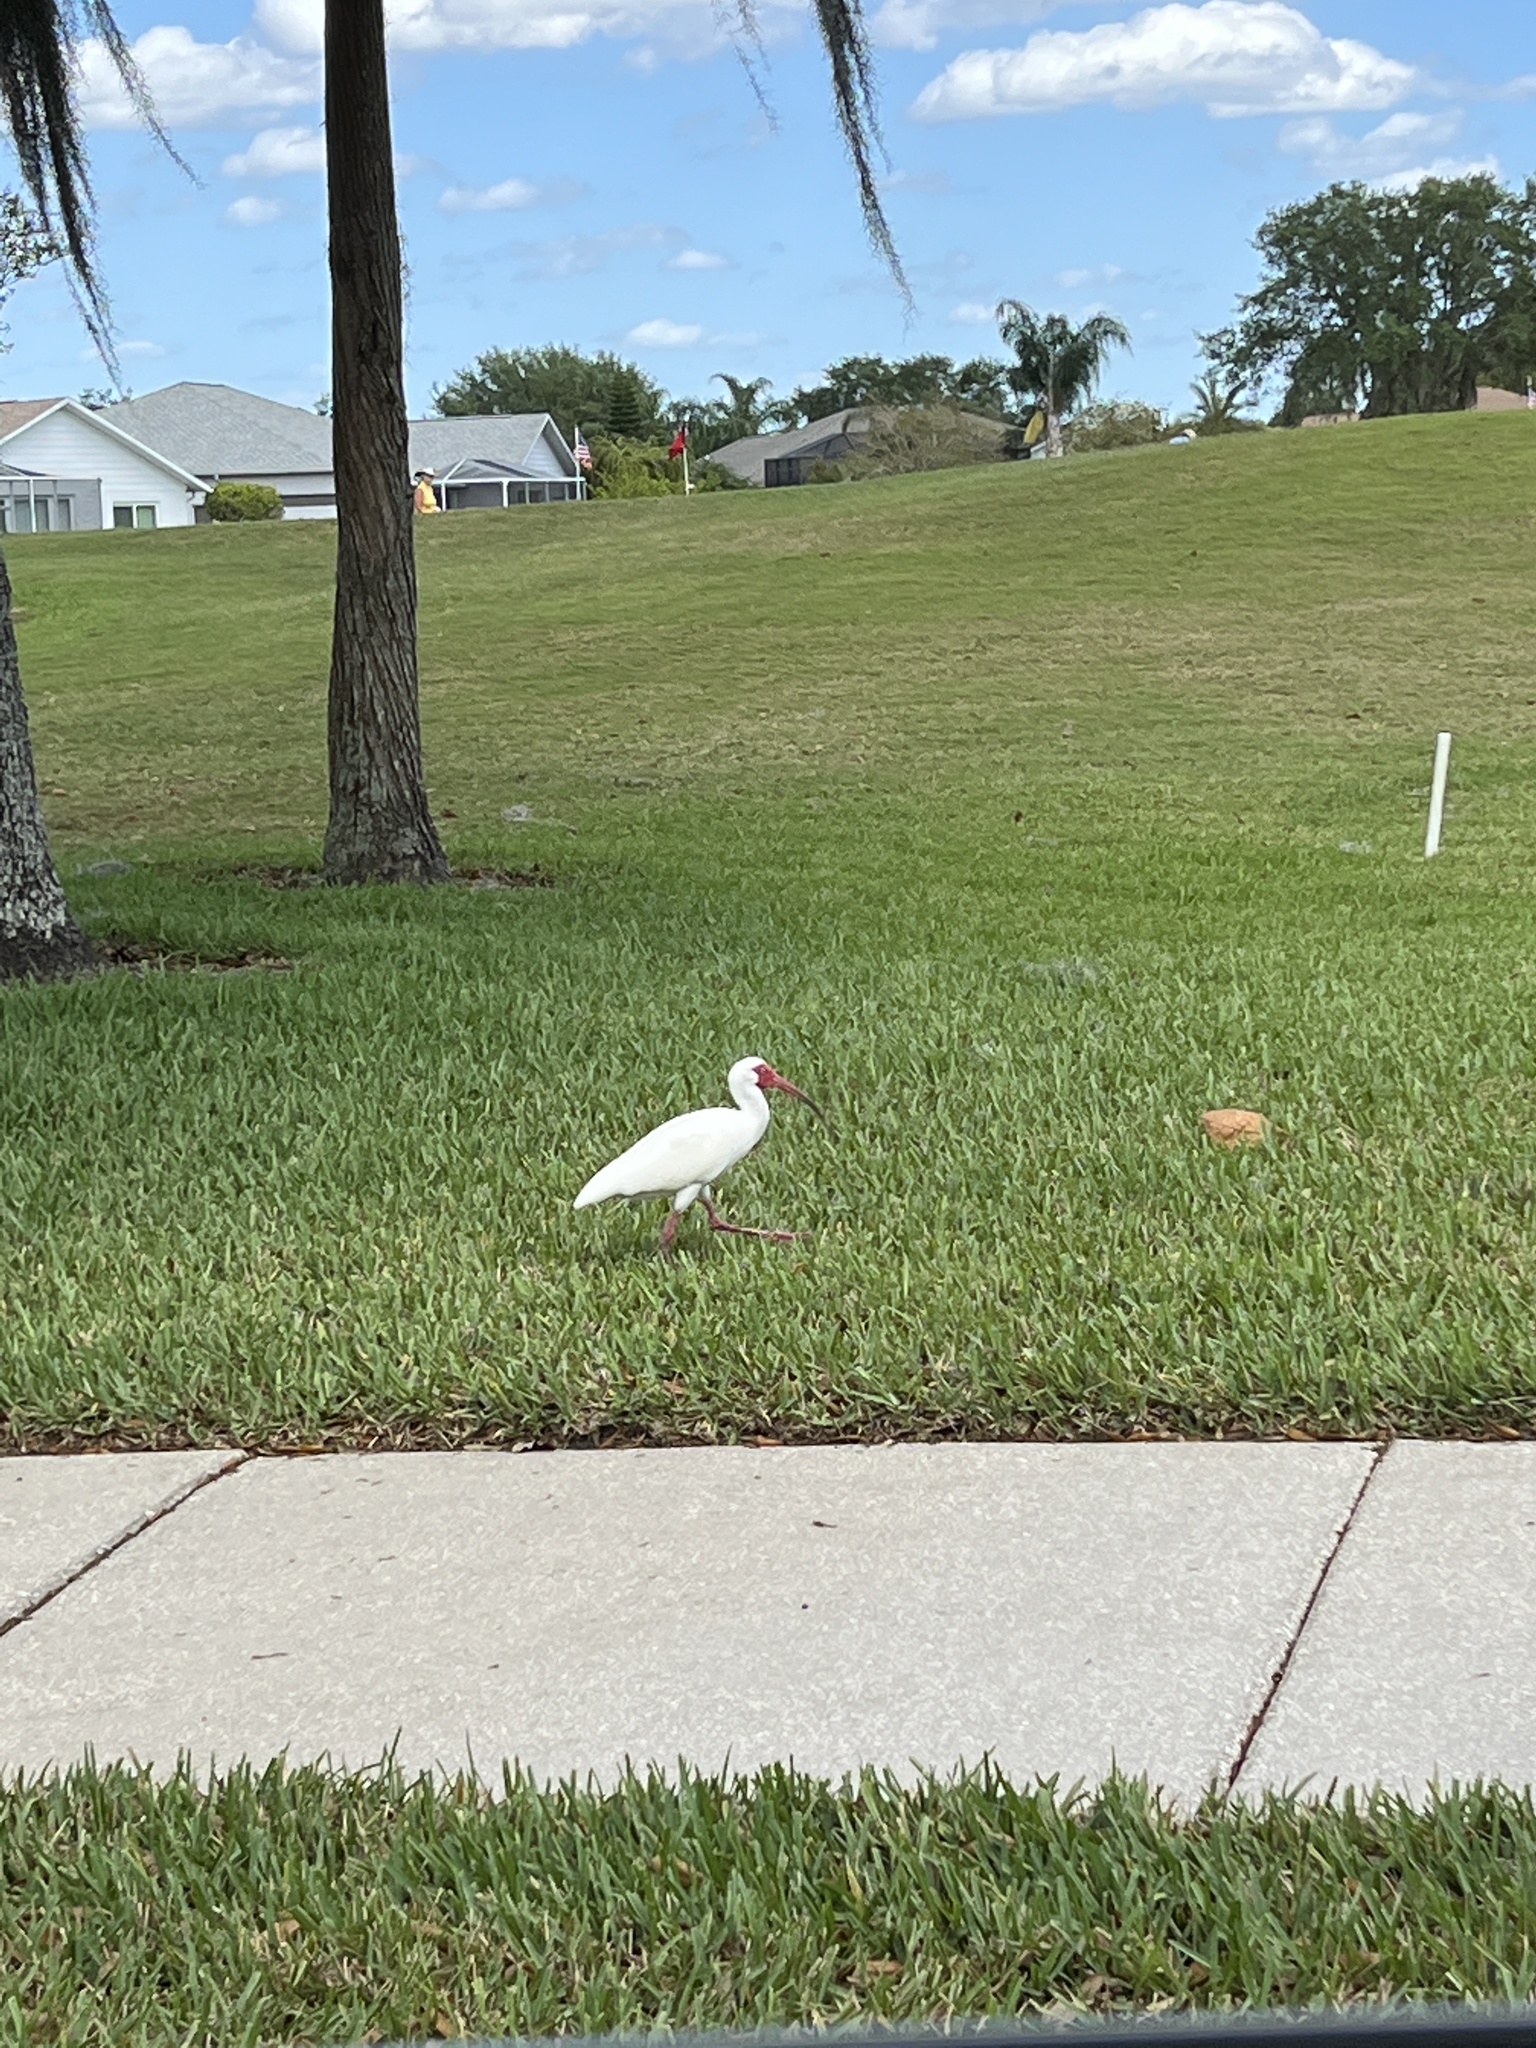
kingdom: Animalia
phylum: Chordata
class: Aves
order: Pelecaniformes
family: Threskiornithidae
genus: Eudocimus
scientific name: Eudocimus albus
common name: White ibis
